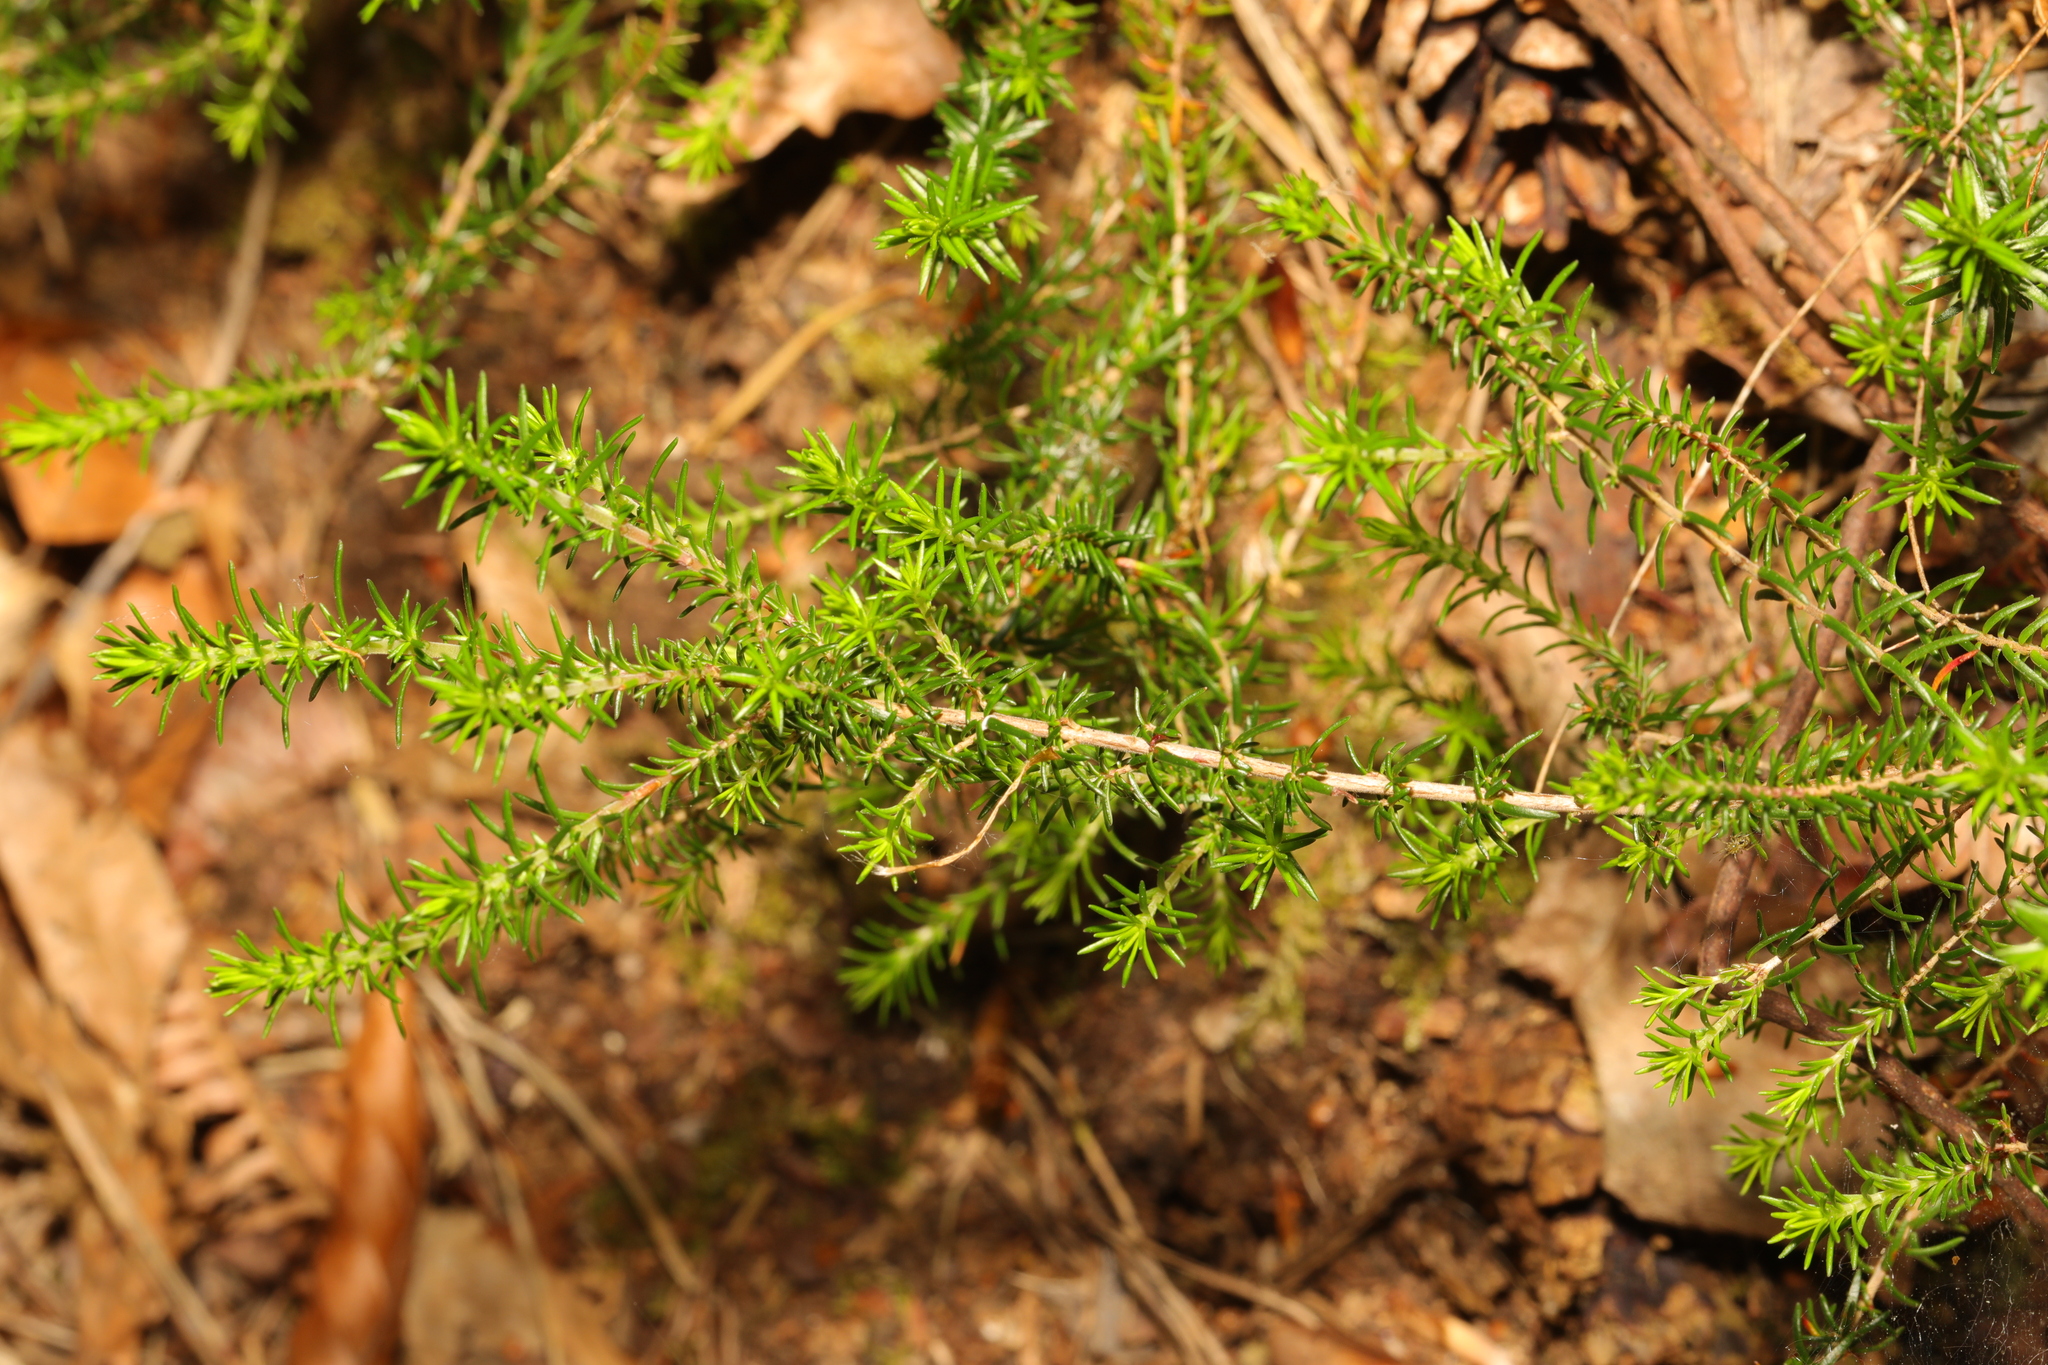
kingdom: Plantae
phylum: Tracheophyta
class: Magnoliopsida
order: Ericales
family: Ericaceae
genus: Erica
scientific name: Erica cinerea
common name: Bell heather
